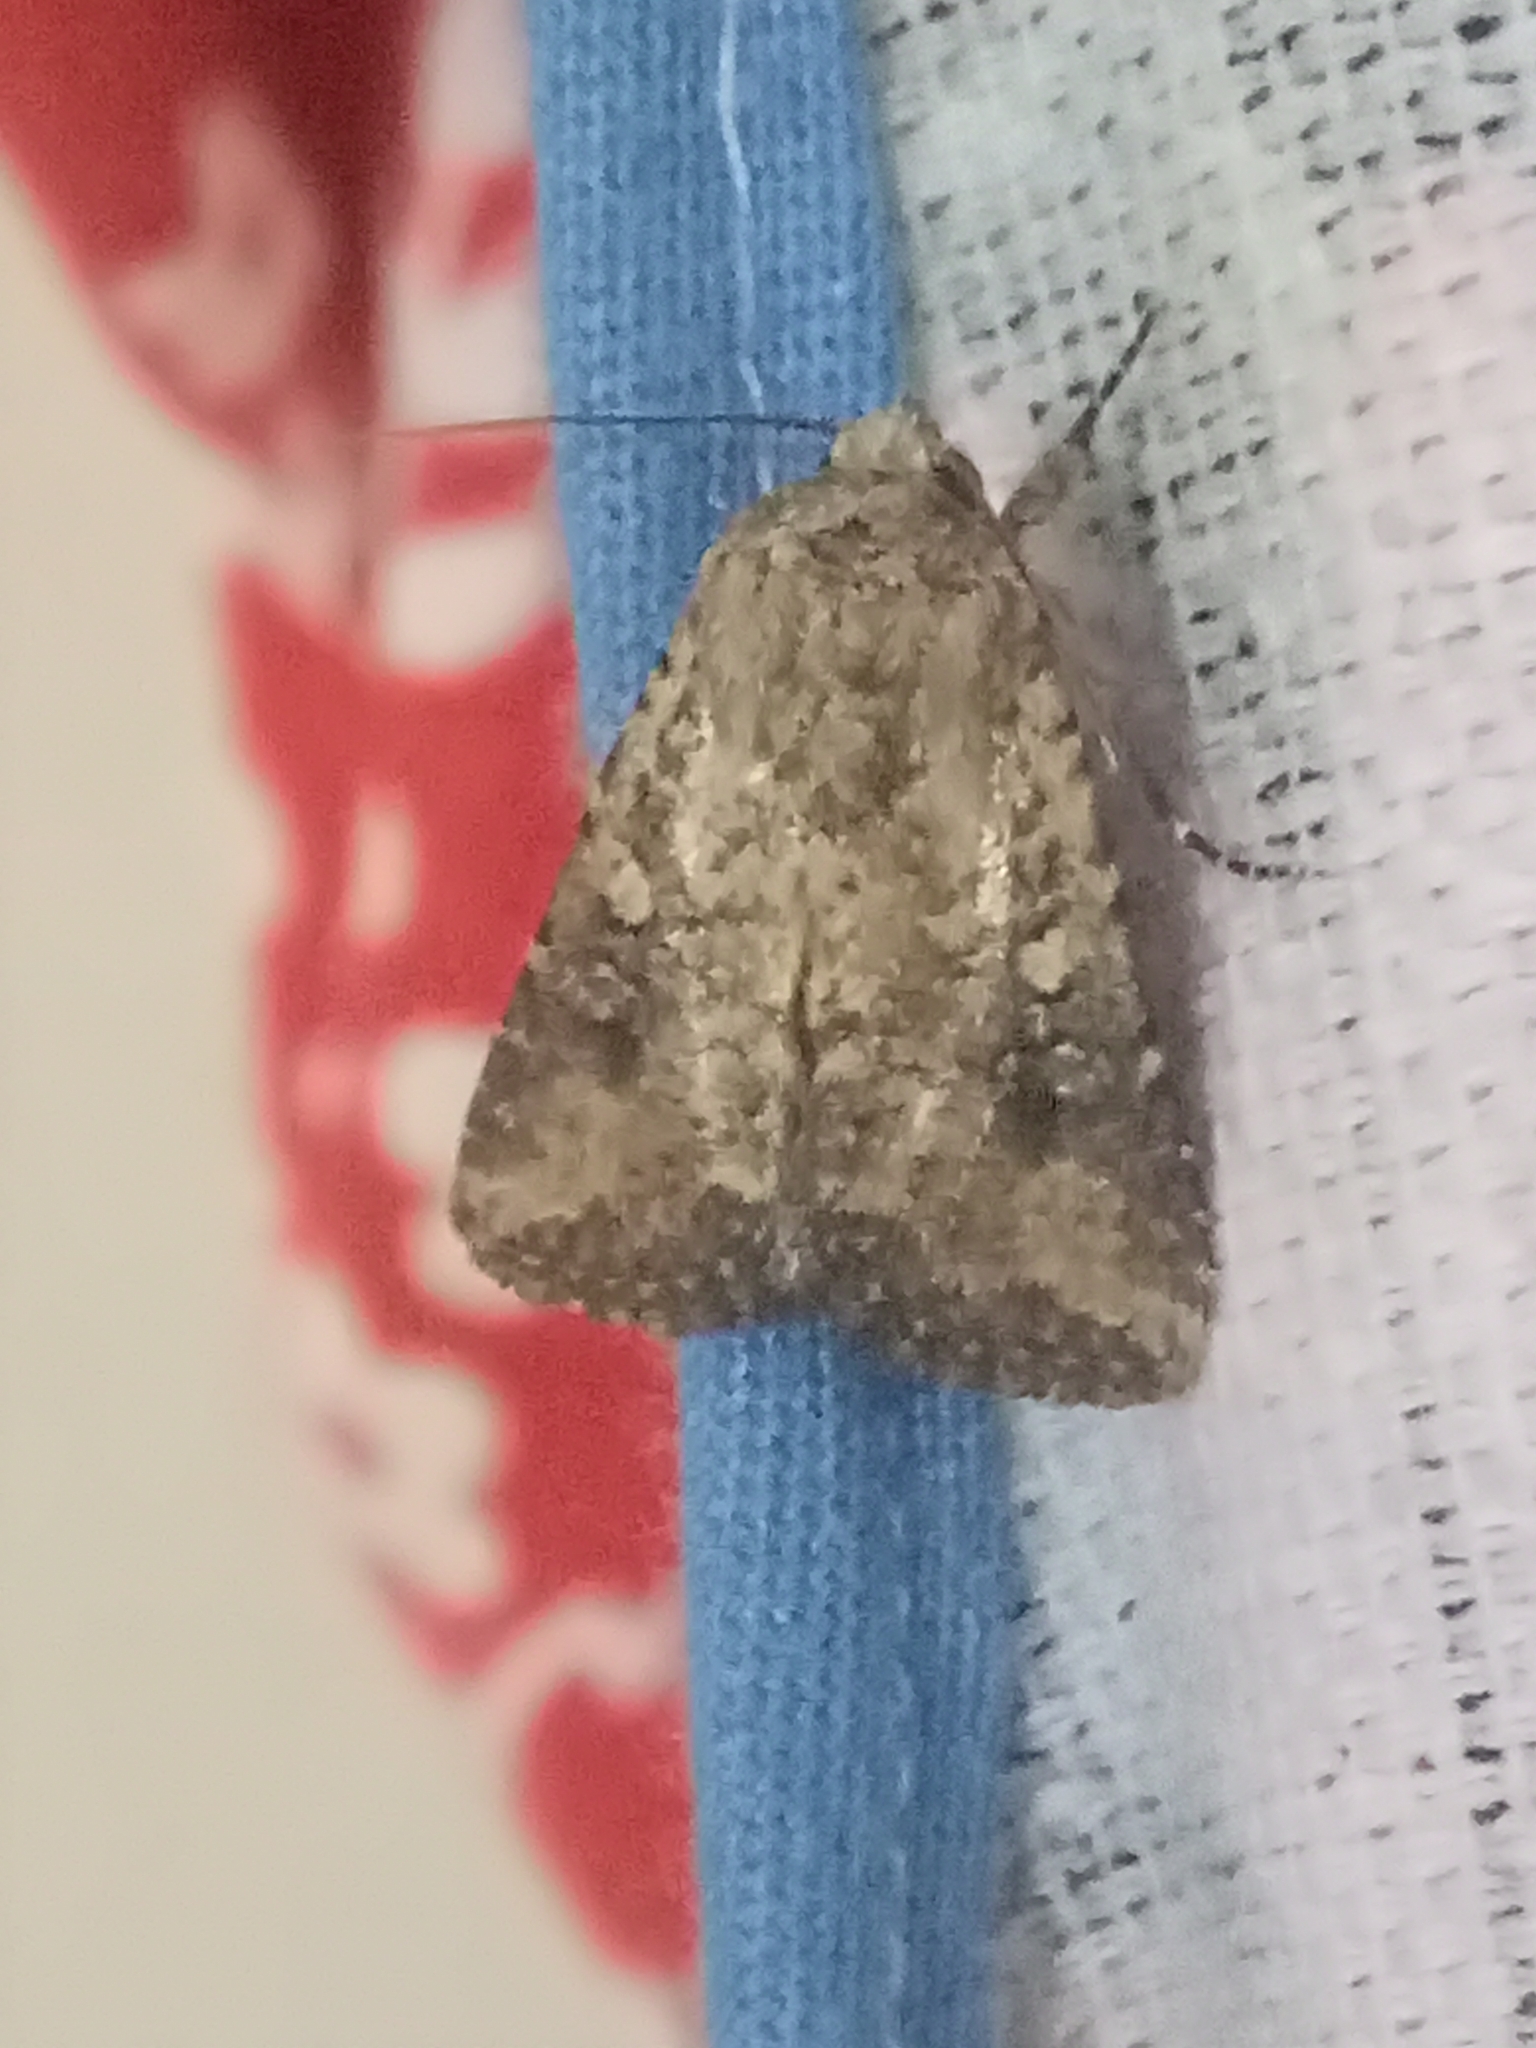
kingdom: Animalia
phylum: Arthropoda
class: Insecta
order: Lepidoptera
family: Noctuidae
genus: Mythimna
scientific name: Mythimna languida
